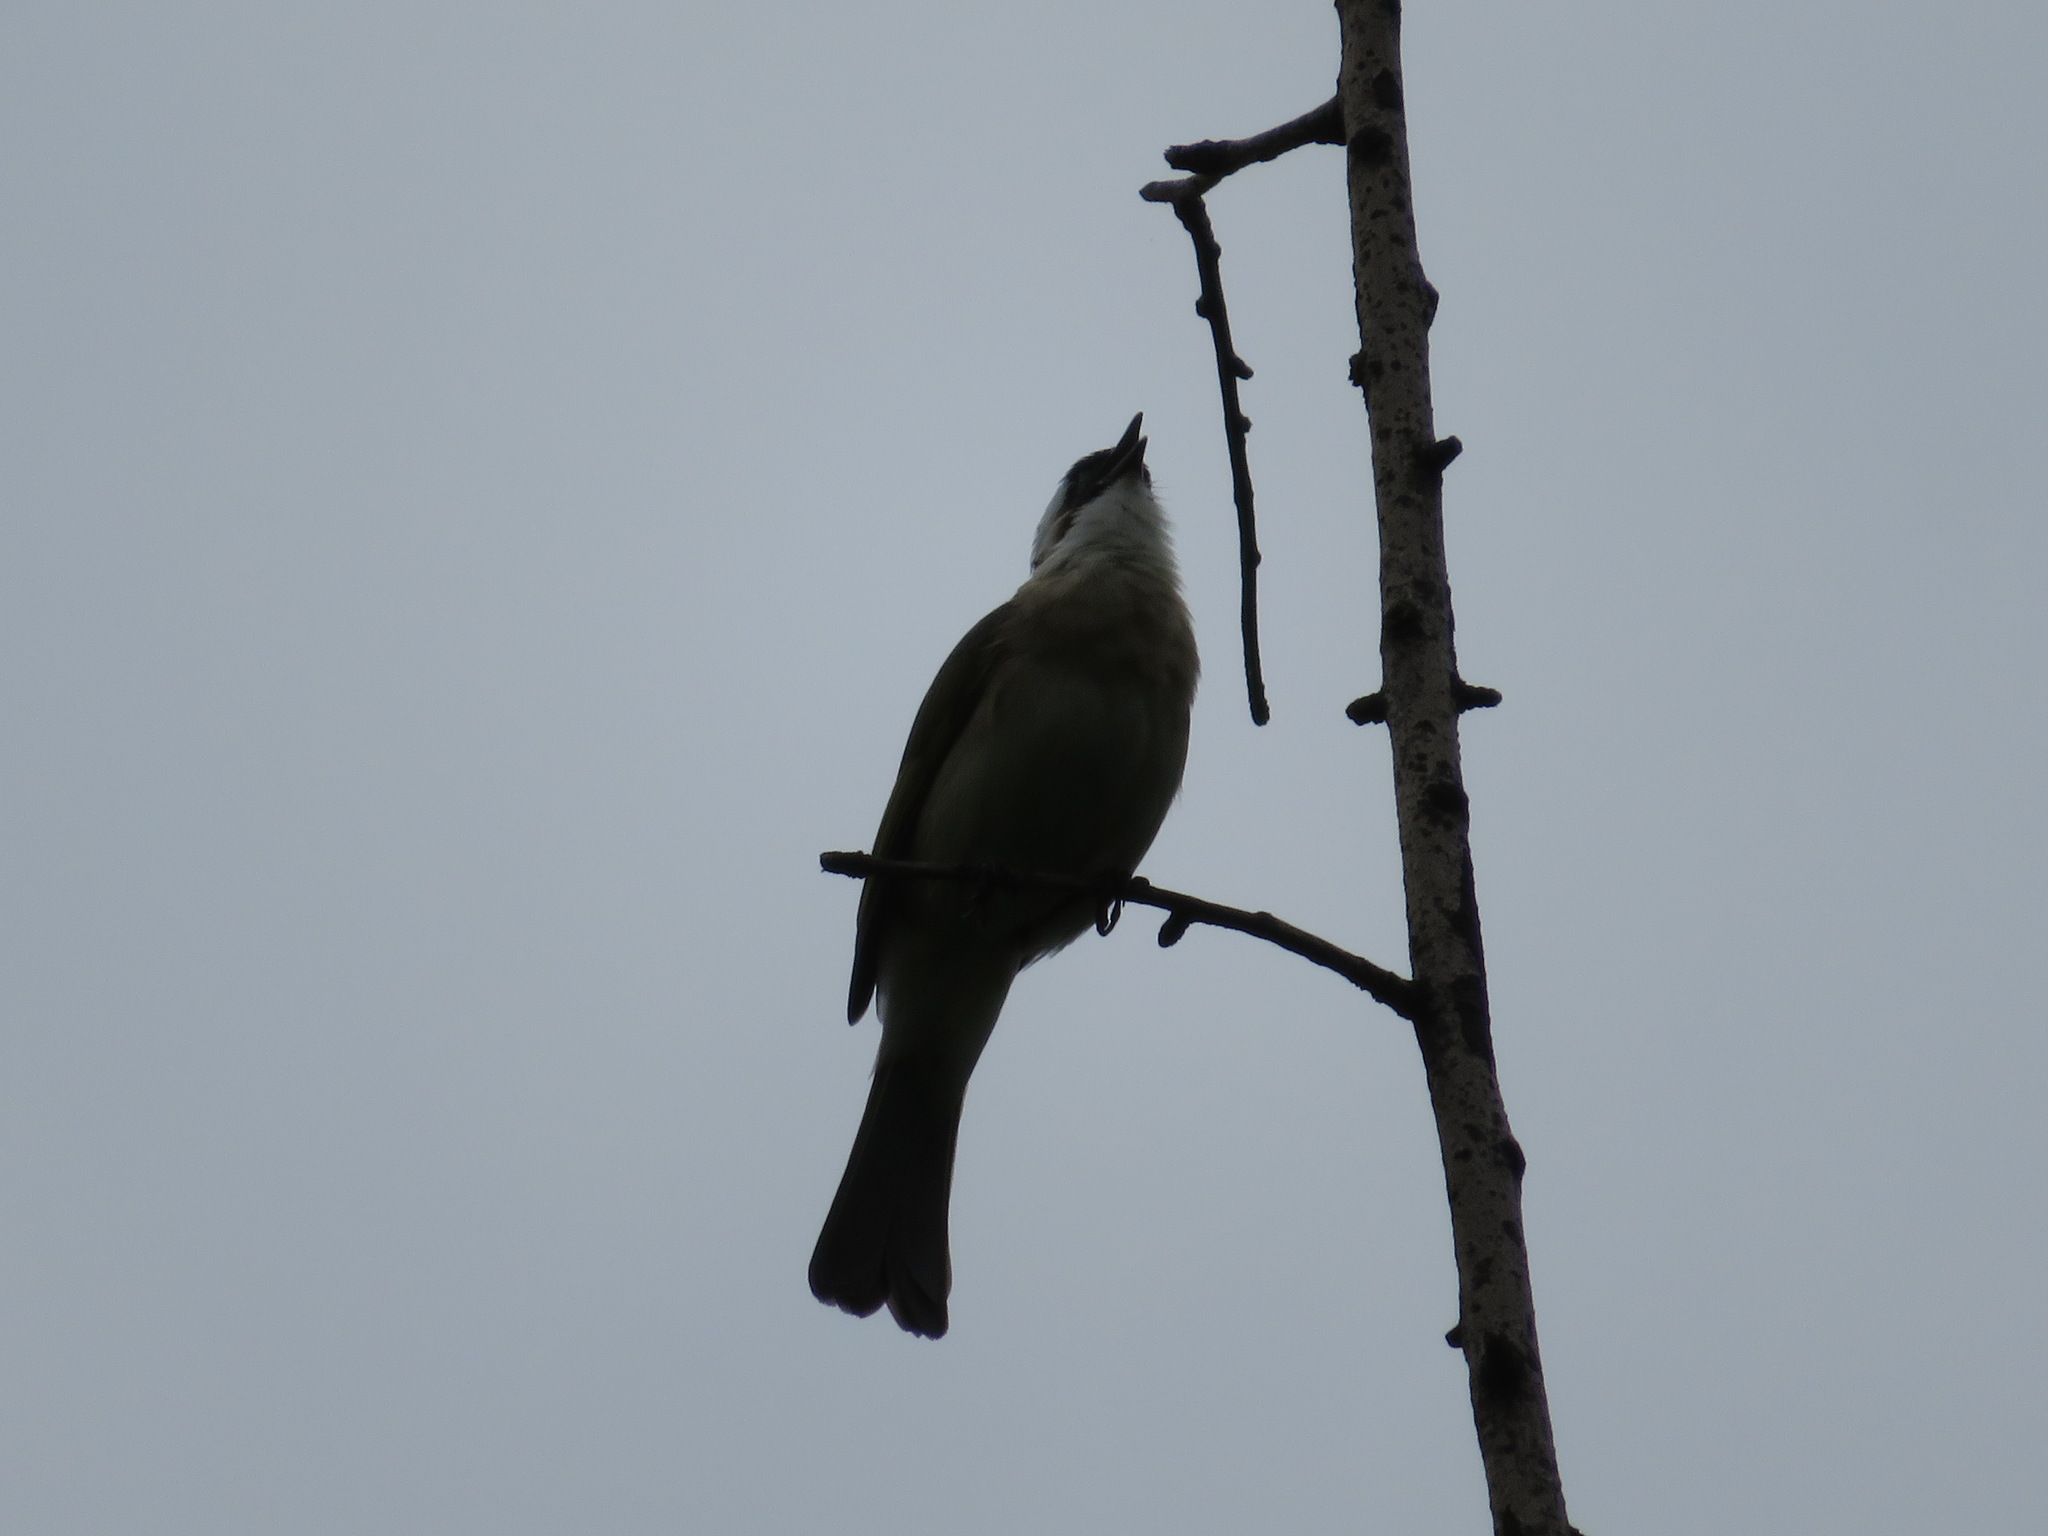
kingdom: Animalia
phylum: Chordata
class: Aves
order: Passeriformes
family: Pycnonotidae
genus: Pycnonotus
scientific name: Pycnonotus sinensis
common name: Light-vented bulbul
